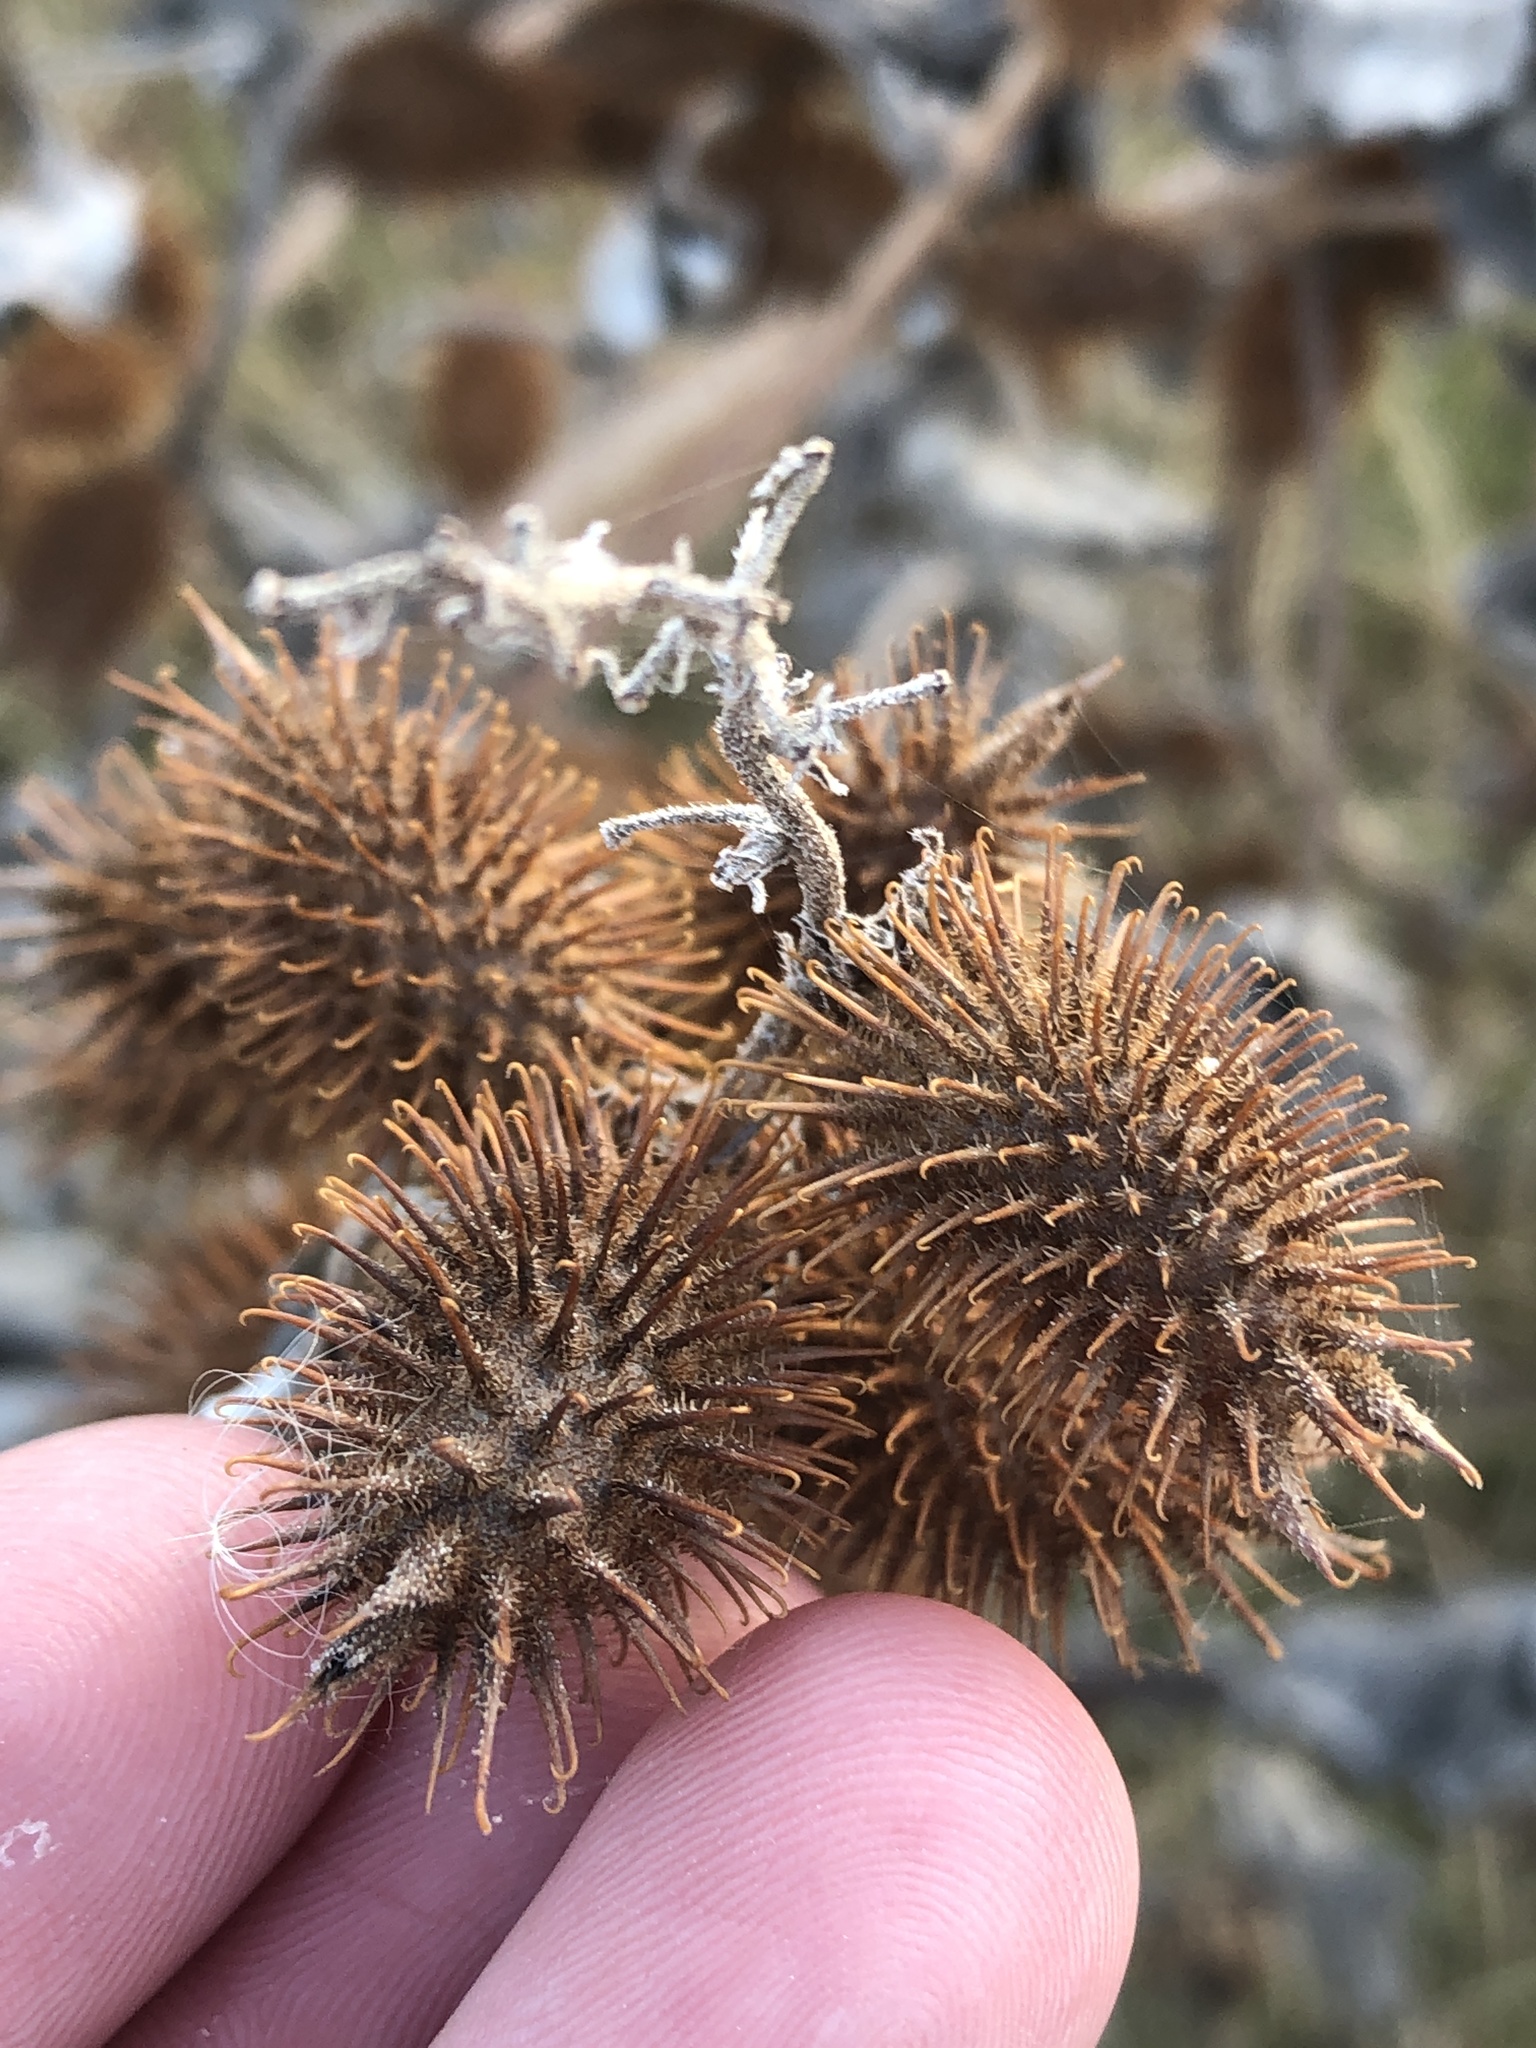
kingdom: Plantae
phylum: Tracheophyta
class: Magnoliopsida
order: Asterales
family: Asteraceae
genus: Xanthium
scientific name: Xanthium strumarium
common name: Rough cocklebur
